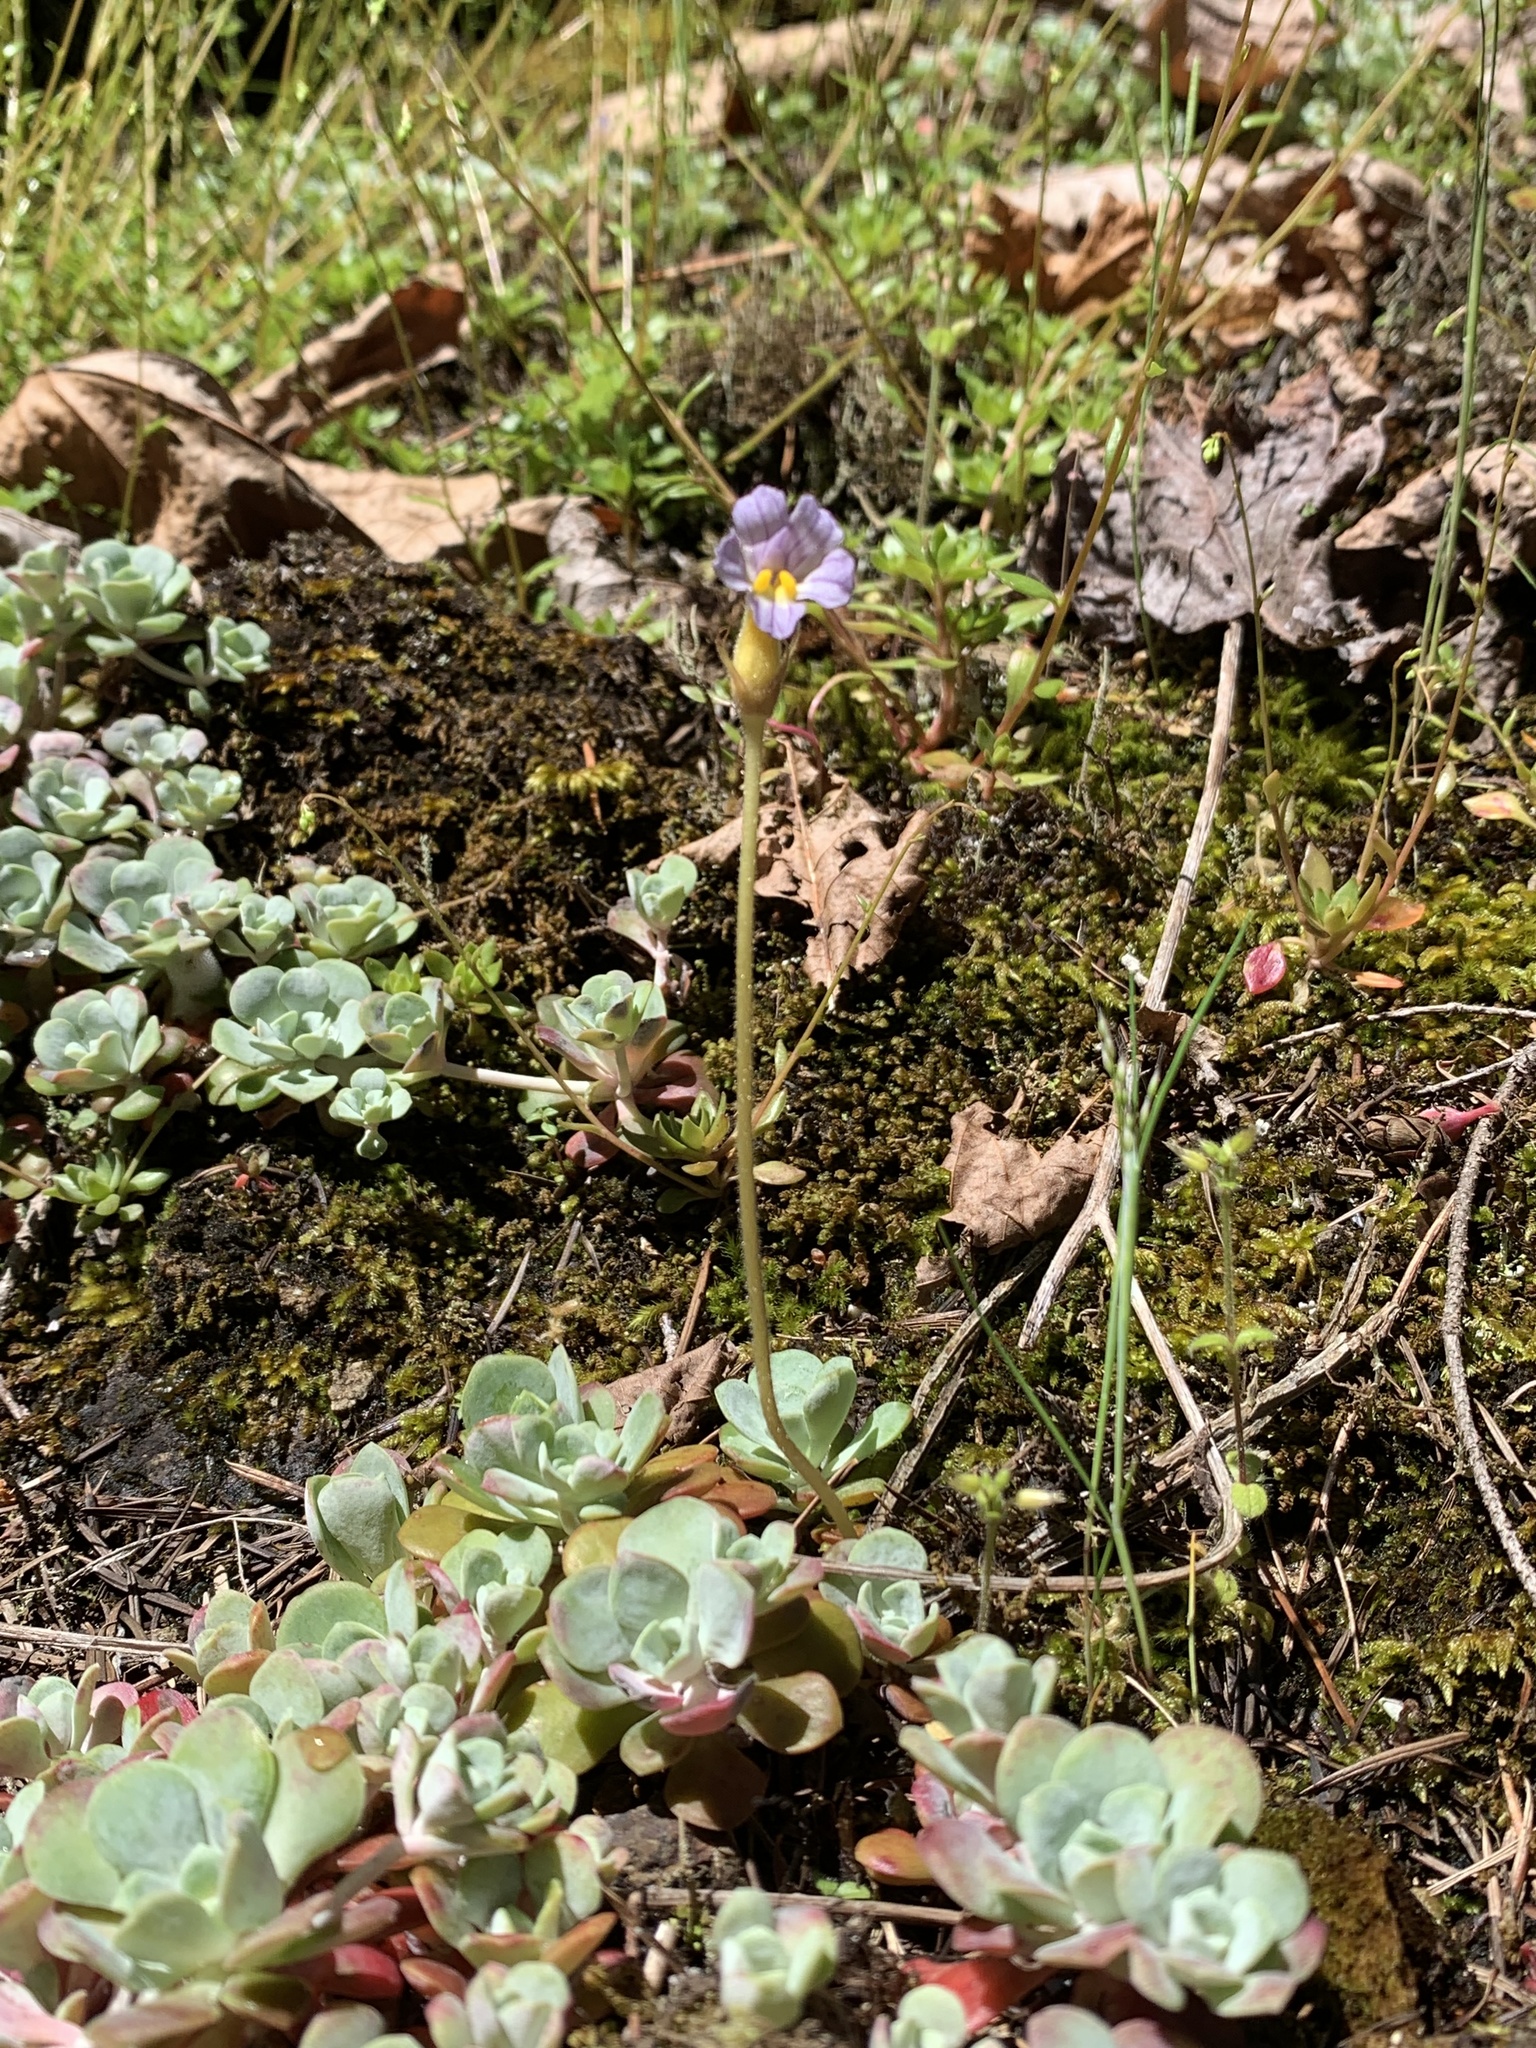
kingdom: Plantae
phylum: Tracheophyta
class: Magnoliopsida
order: Lamiales
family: Orobanchaceae
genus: Aphyllon
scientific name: Aphyllon uniflorum
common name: One-flowered broomrape
